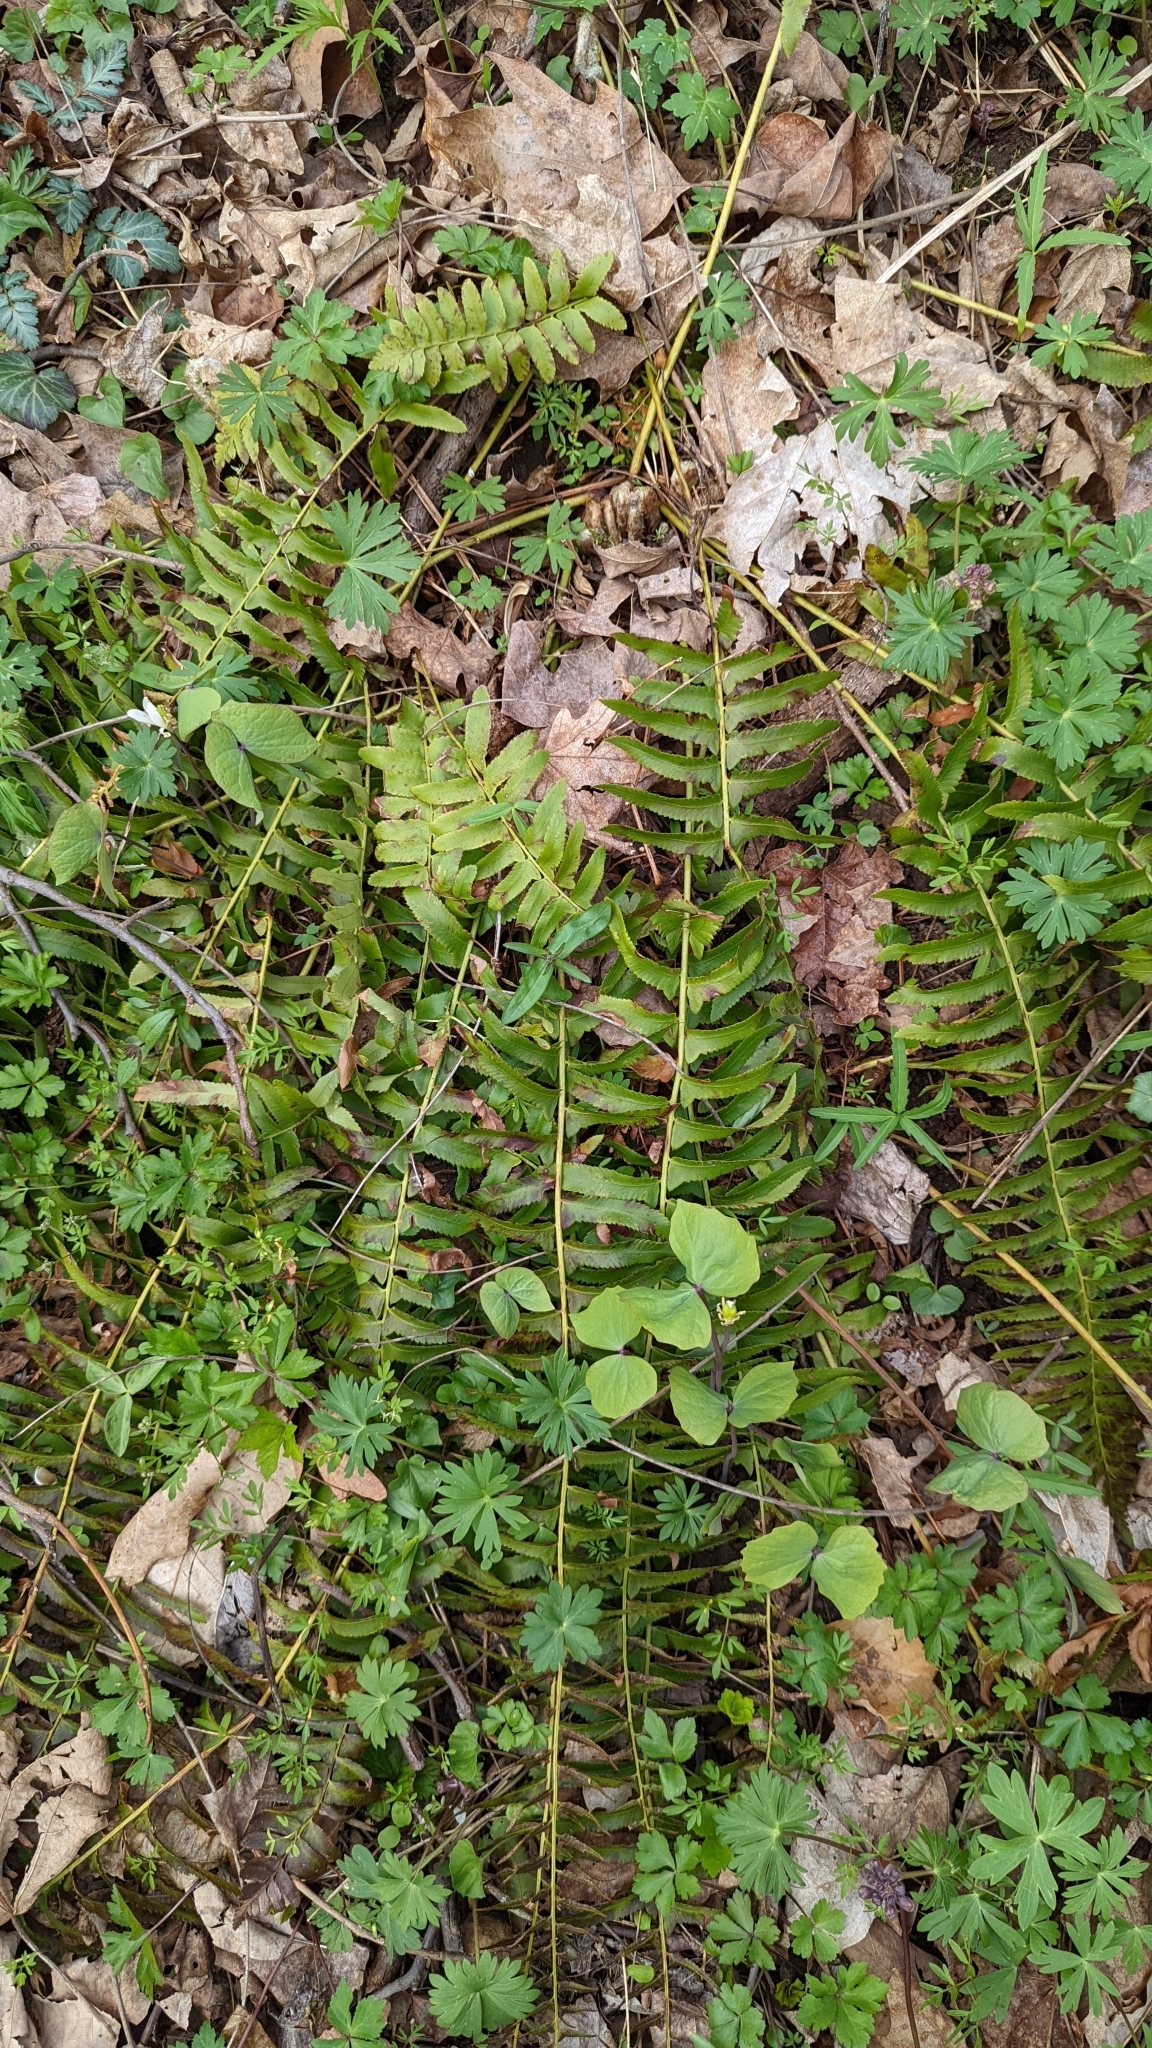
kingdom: Plantae
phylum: Tracheophyta
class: Polypodiopsida
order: Polypodiales
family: Dryopteridaceae
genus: Polystichum
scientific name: Polystichum acrostichoides
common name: Christmas fern
